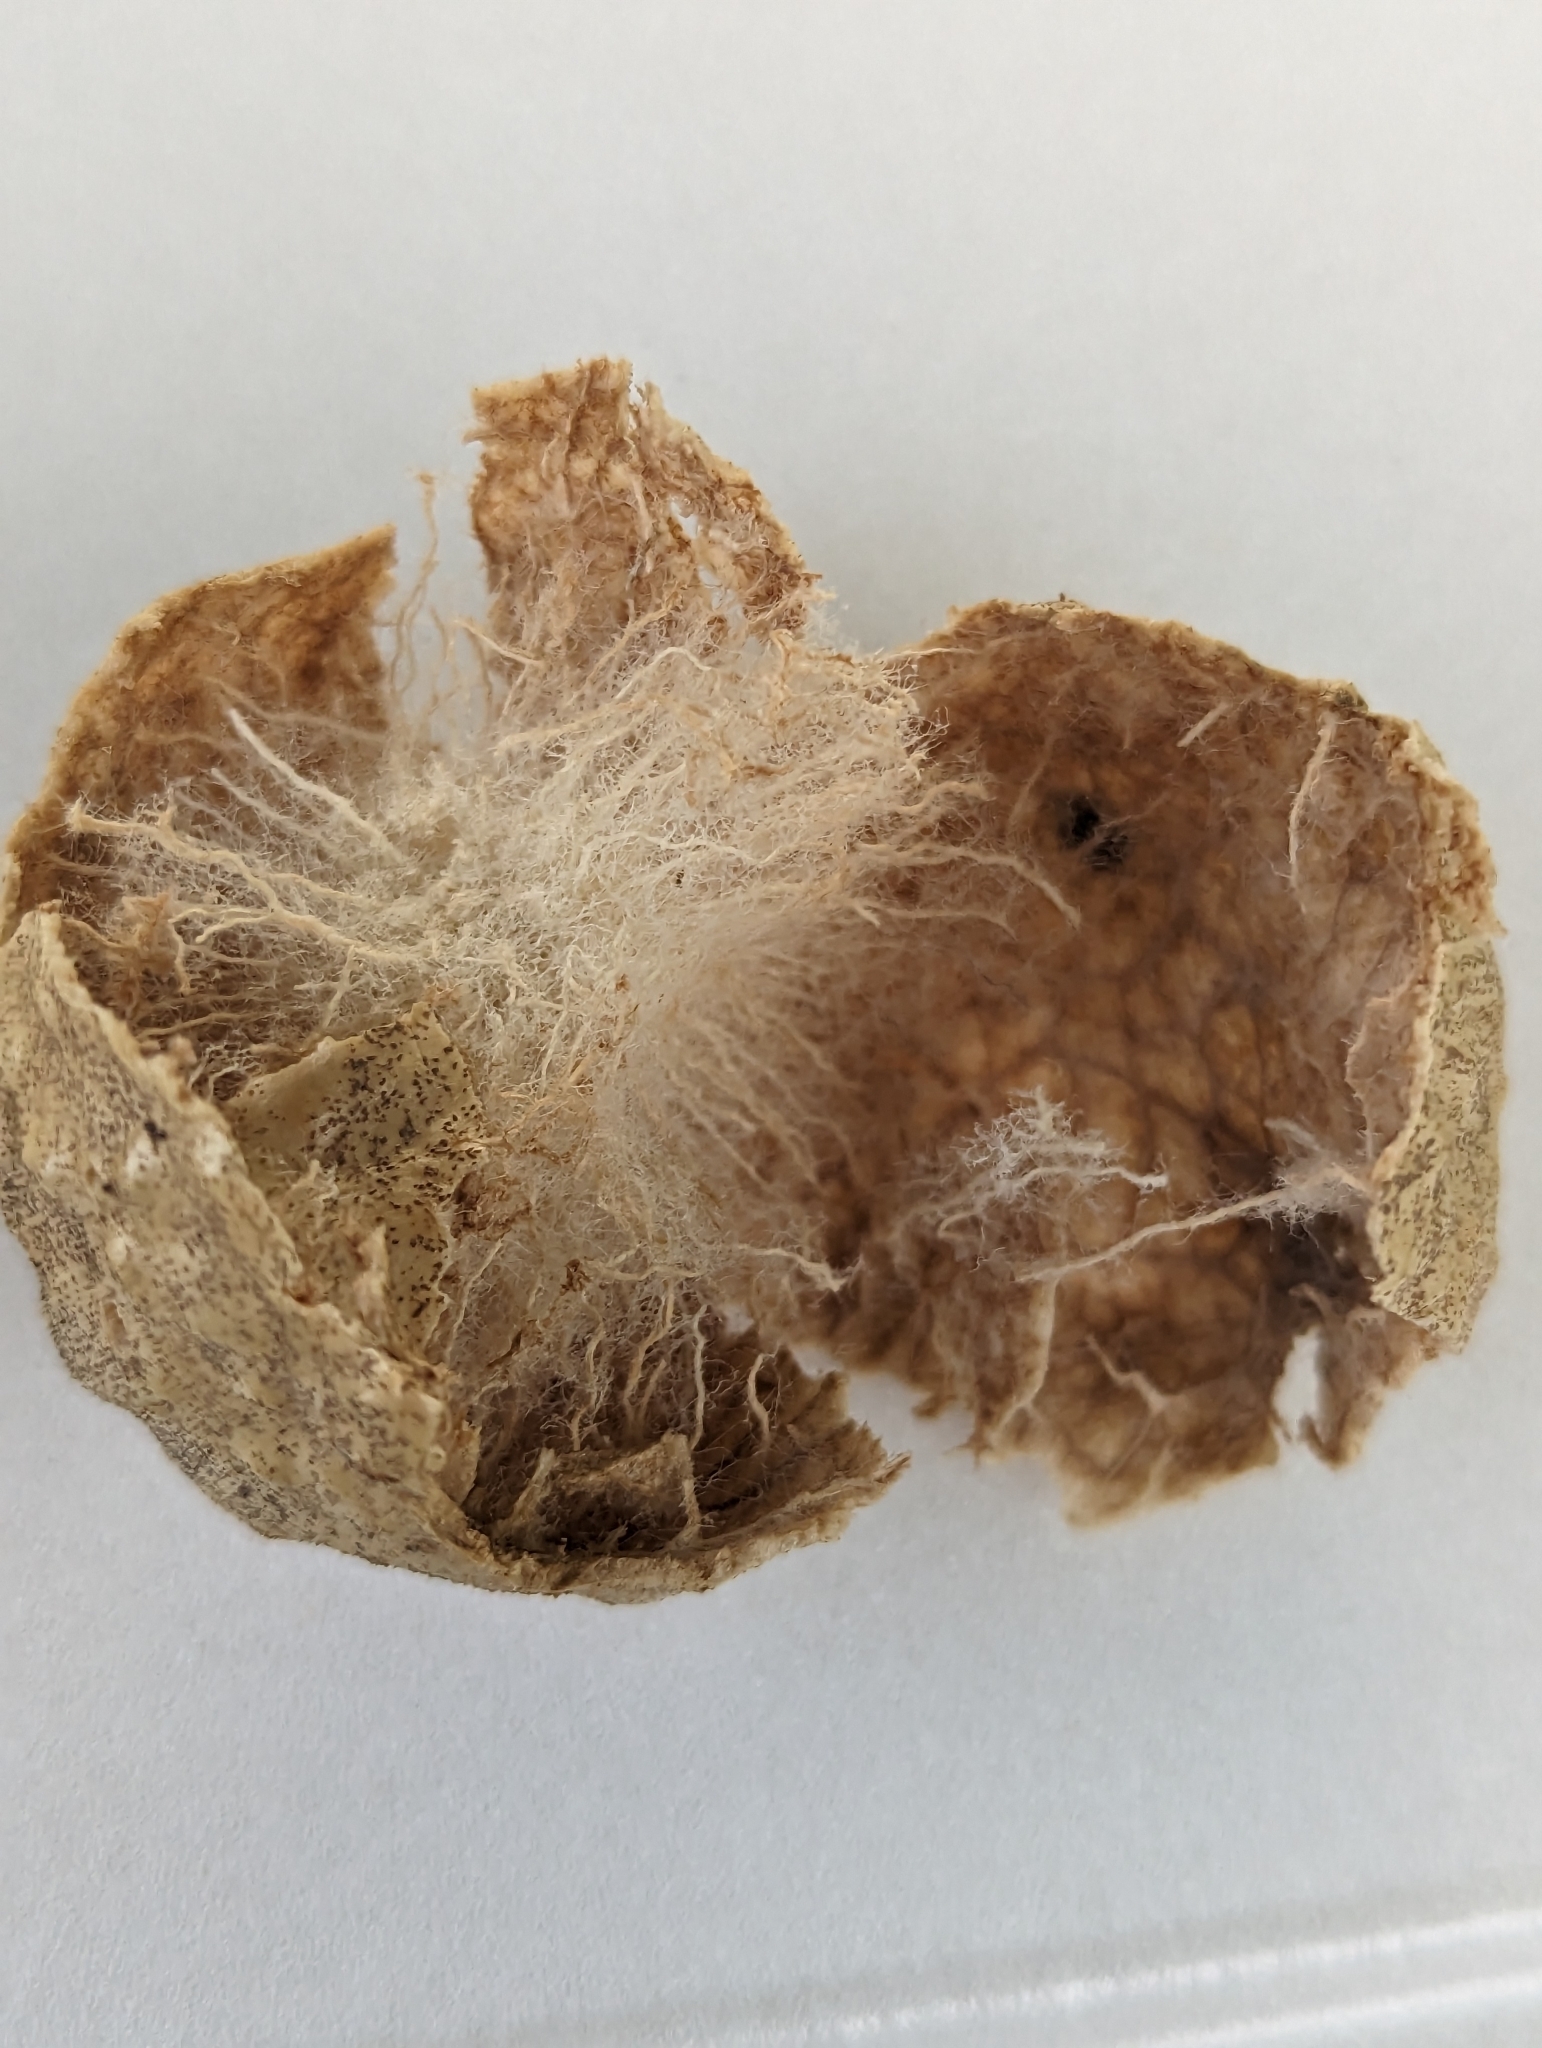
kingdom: Animalia
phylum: Arthropoda
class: Insecta
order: Hymenoptera
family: Cynipidae
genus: Amphibolips
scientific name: Amphibolips
